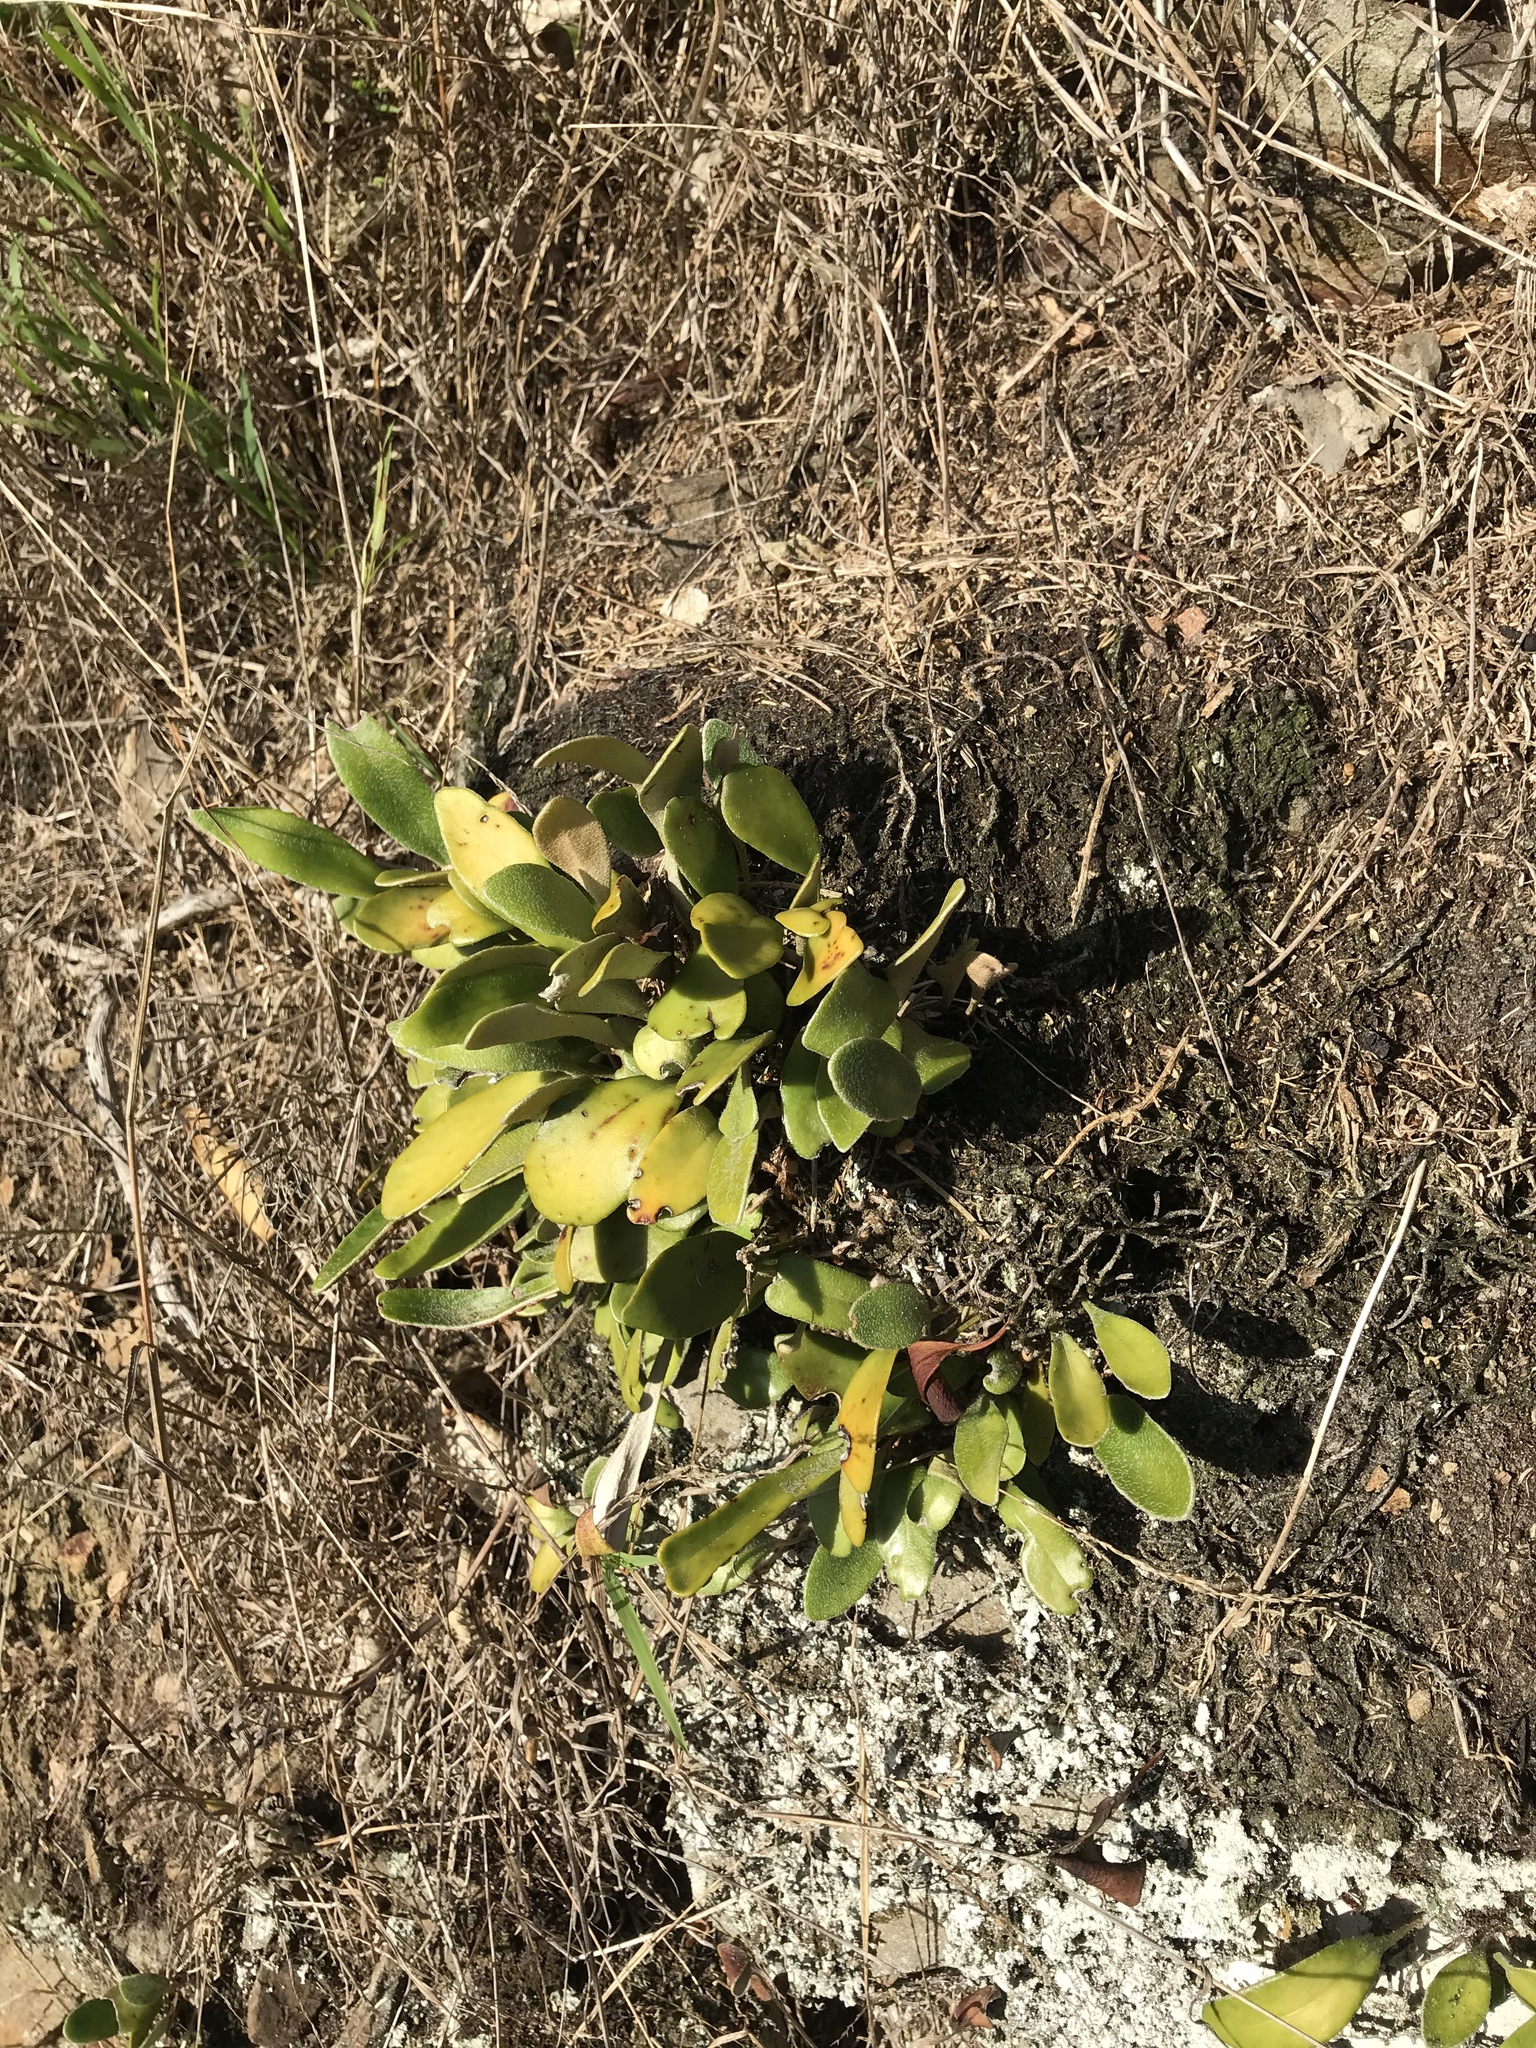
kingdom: Plantae
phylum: Tracheophyta
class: Polypodiopsida
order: Polypodiales
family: Polypodiaceae
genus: Pyrrosia
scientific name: Pyrrosia eleagnifolia
